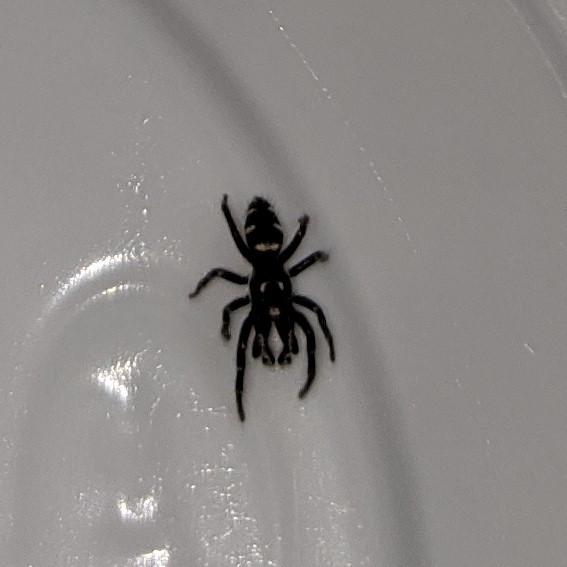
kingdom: Animalia
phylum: Arthropoda
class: Arachnida
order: Araneae
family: Salticidae
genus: Salticus
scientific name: Salticus scenicus
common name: Zebra jumper
